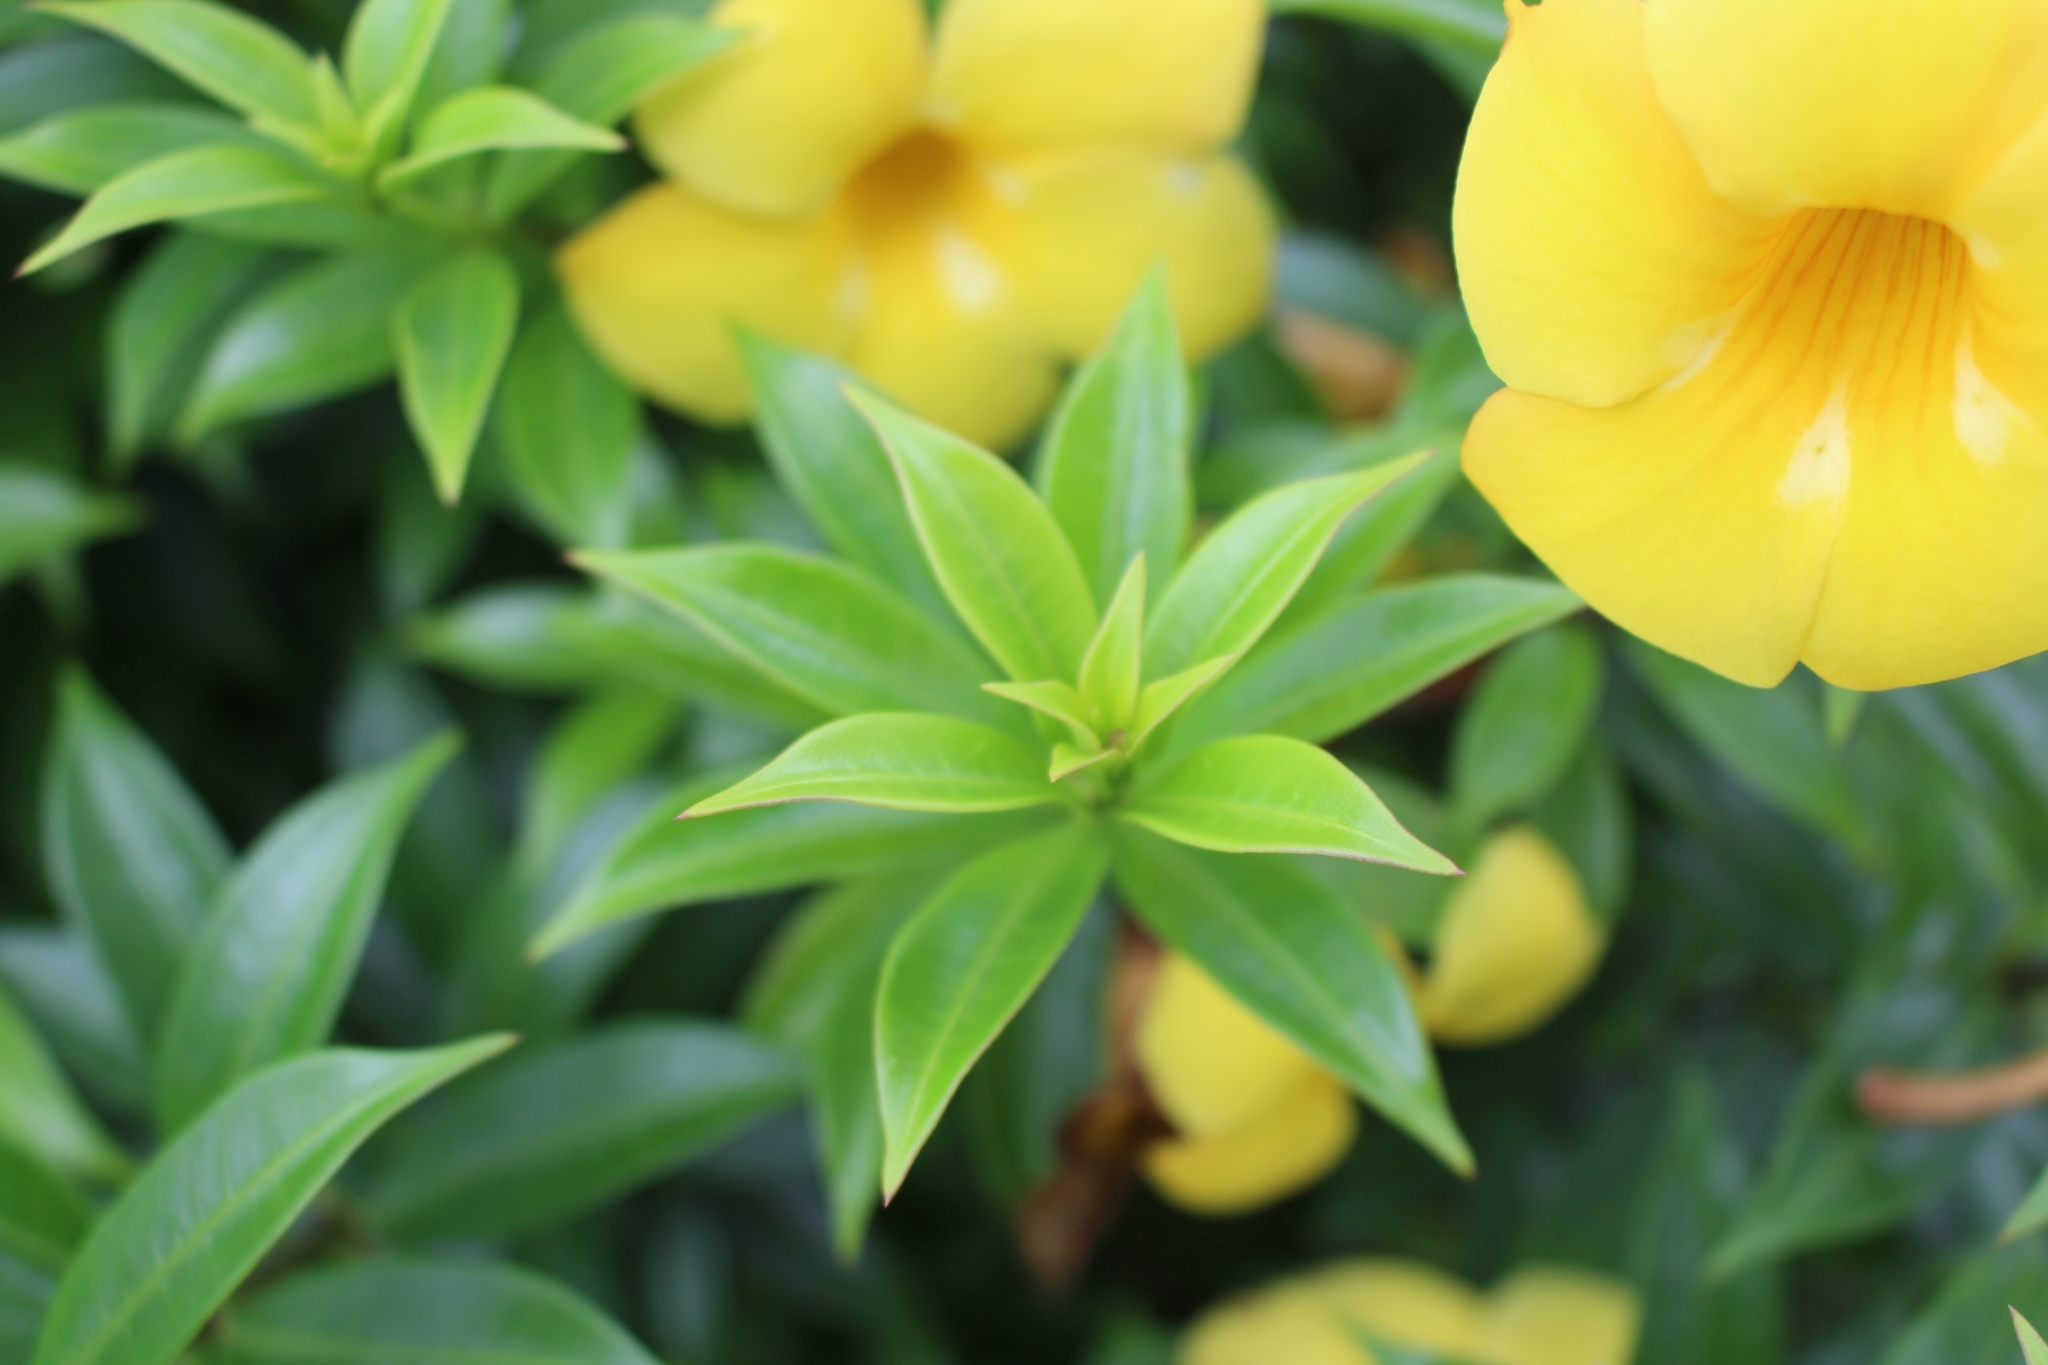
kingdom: Plantae
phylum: Tracheophyta
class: Magnoliopsida
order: Gentianales
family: Apocynaceae
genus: Allamanda
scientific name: Allamanda cathartica
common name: Golden trumpet
